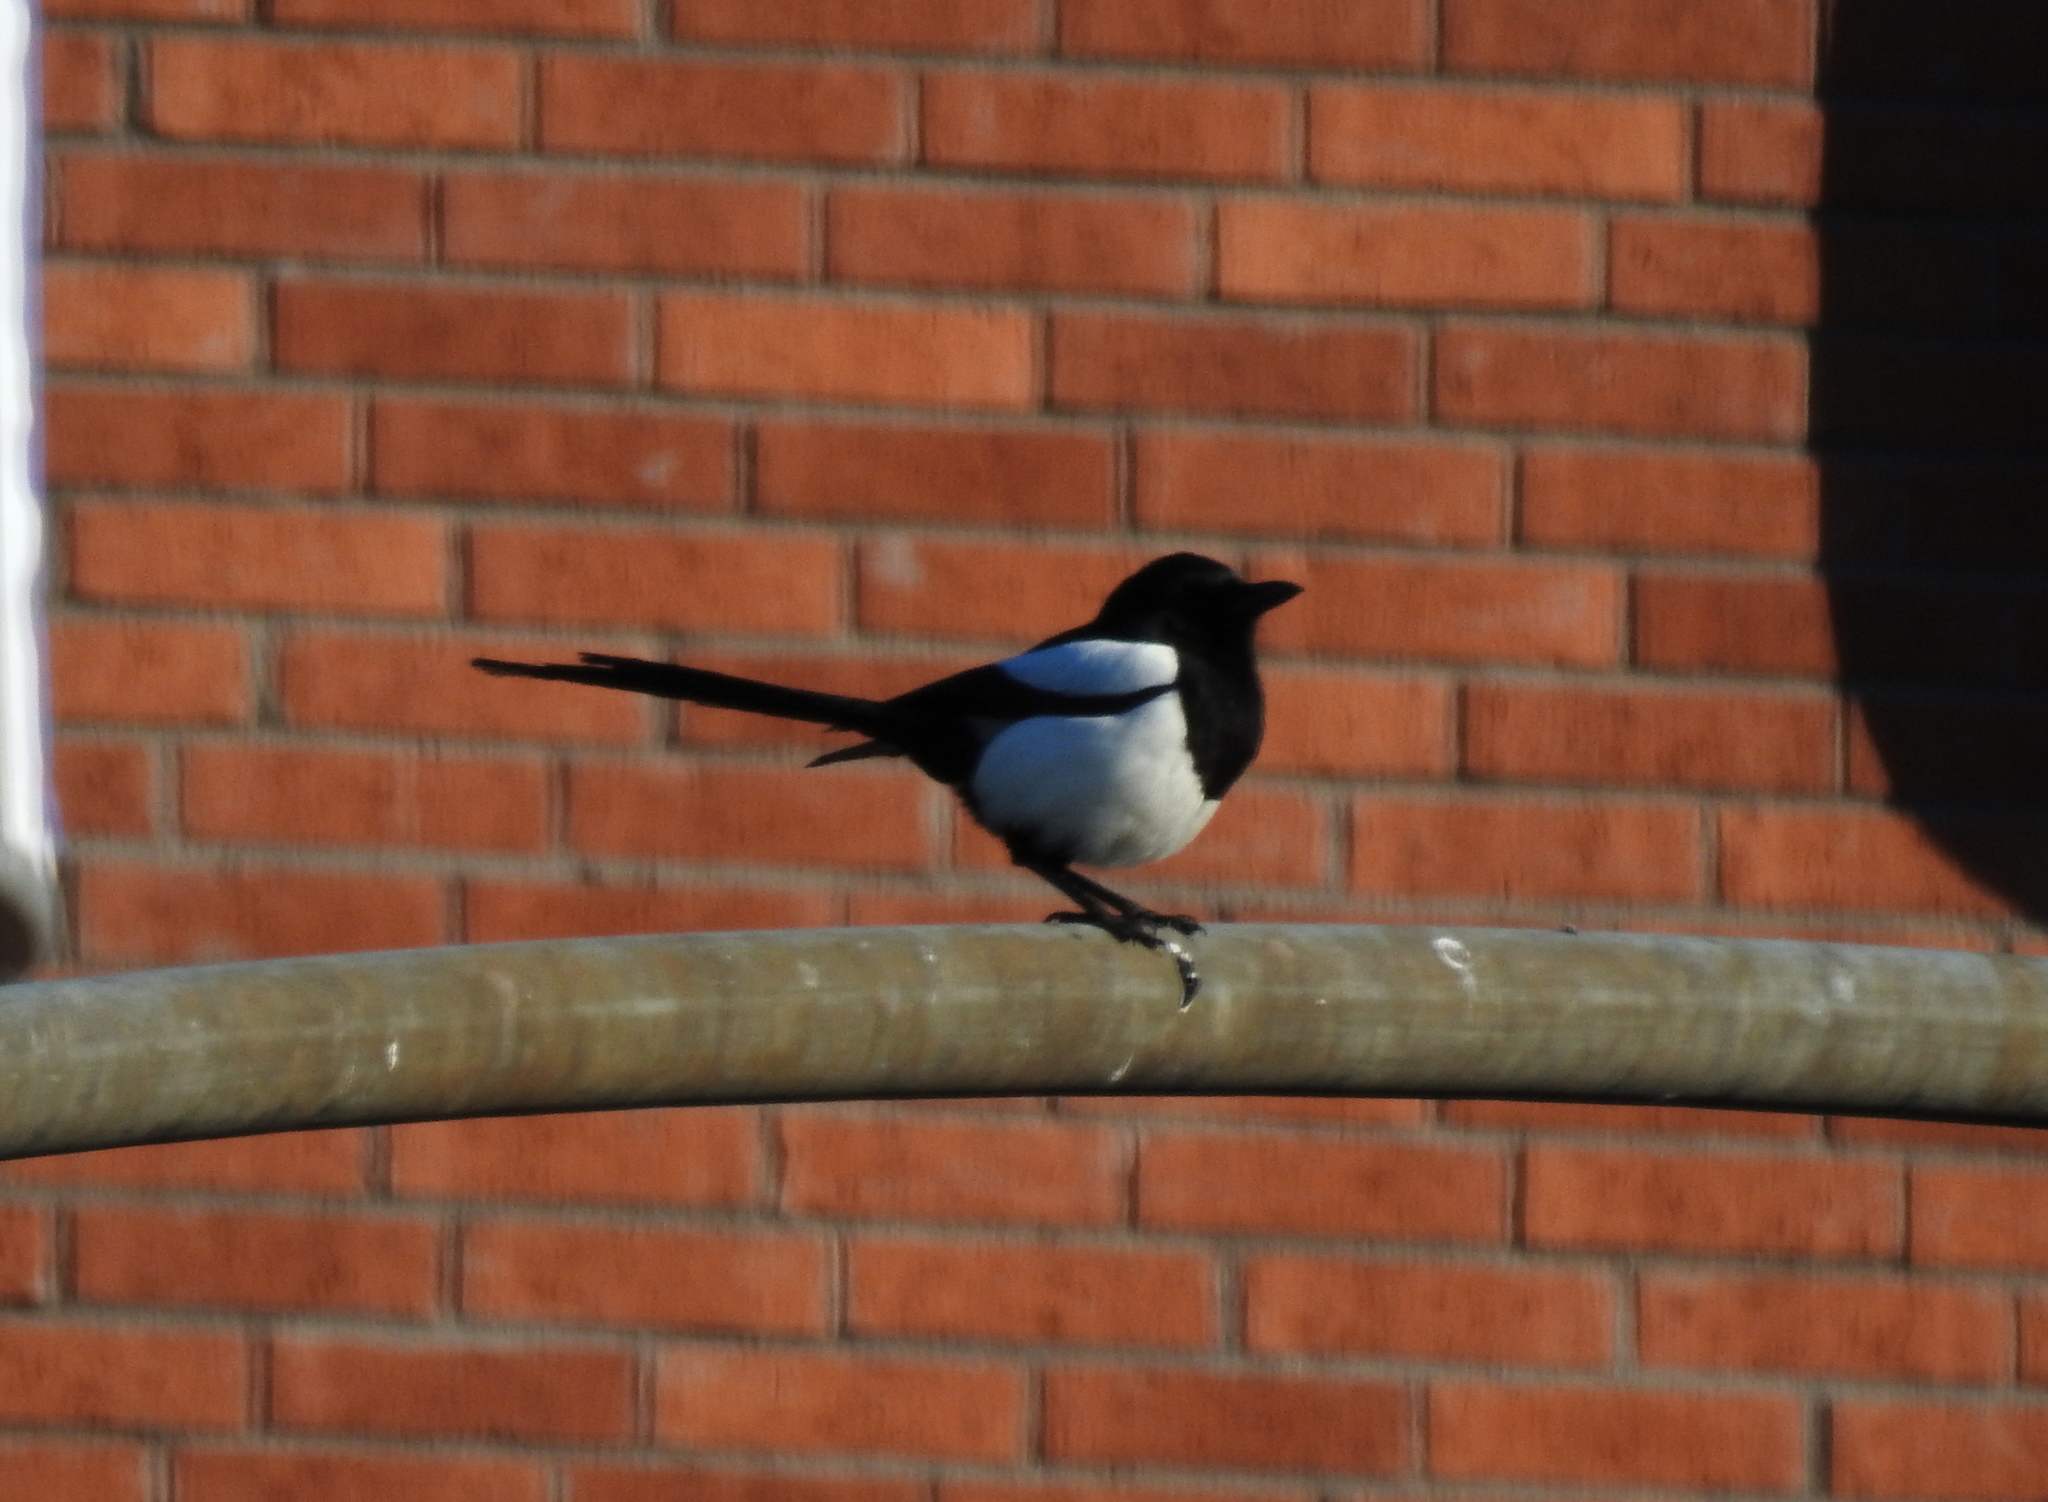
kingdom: Animalia
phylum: Chordata
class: Aves
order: Passeriformes
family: Corvidae
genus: Pica
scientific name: Pica pica
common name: Eurasian magpie
